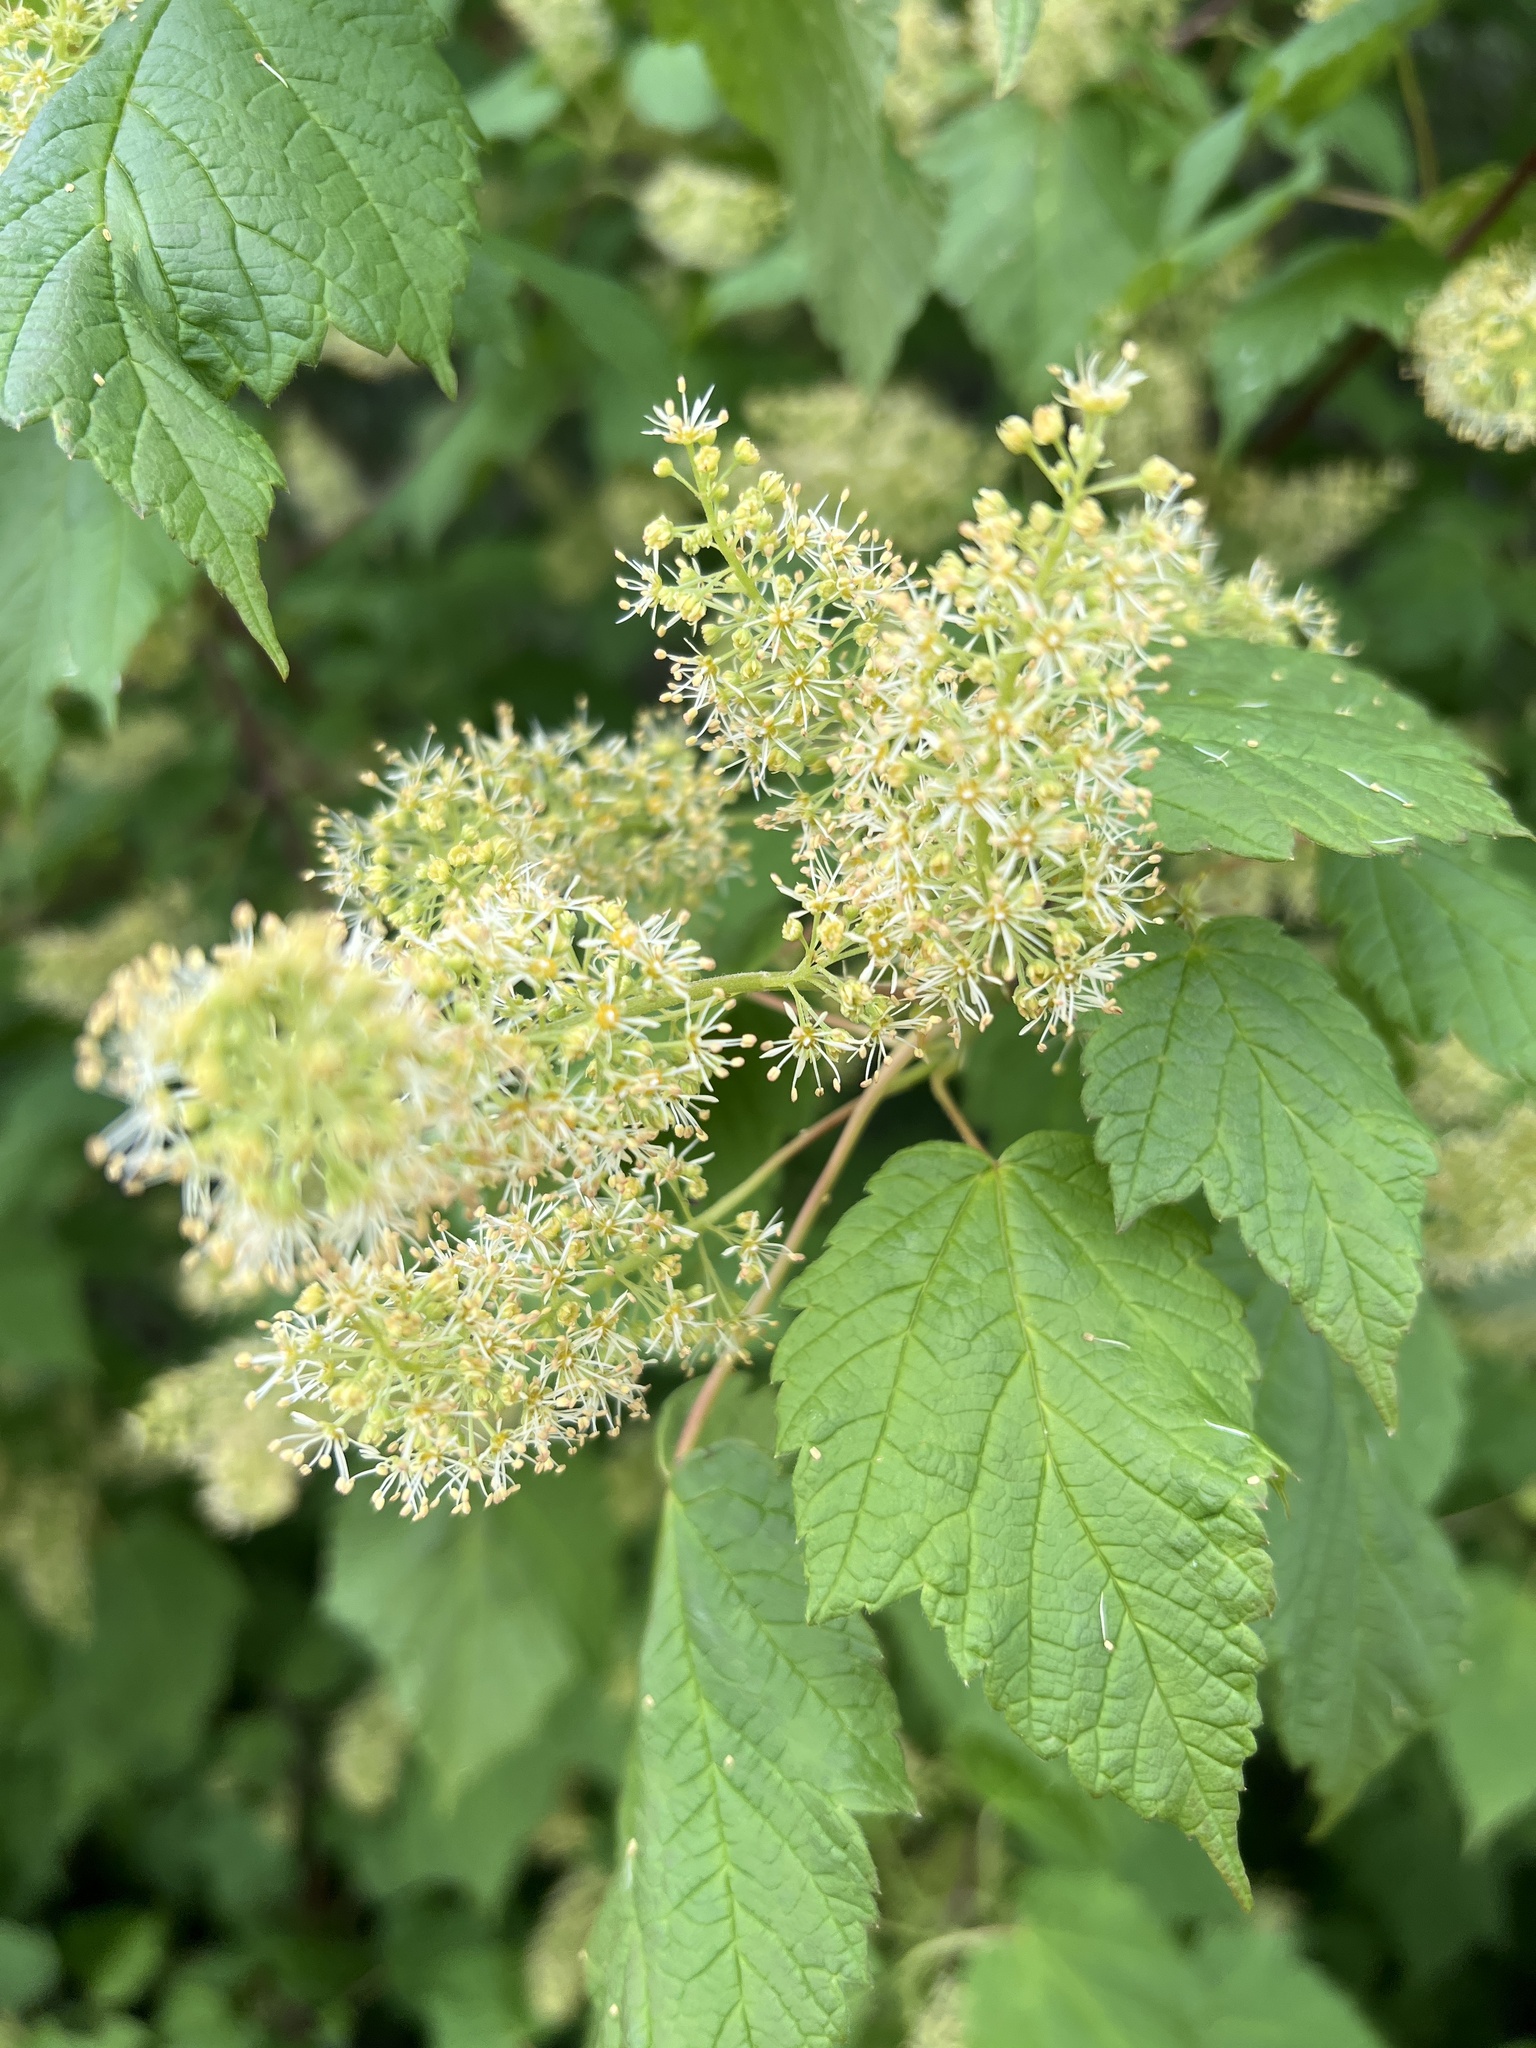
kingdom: Plantae
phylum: Tracheophyta
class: Magnoliopsida
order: Sapindales
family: Sapindaceae
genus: Acer
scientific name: Acer spicatum
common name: Mountain maple
